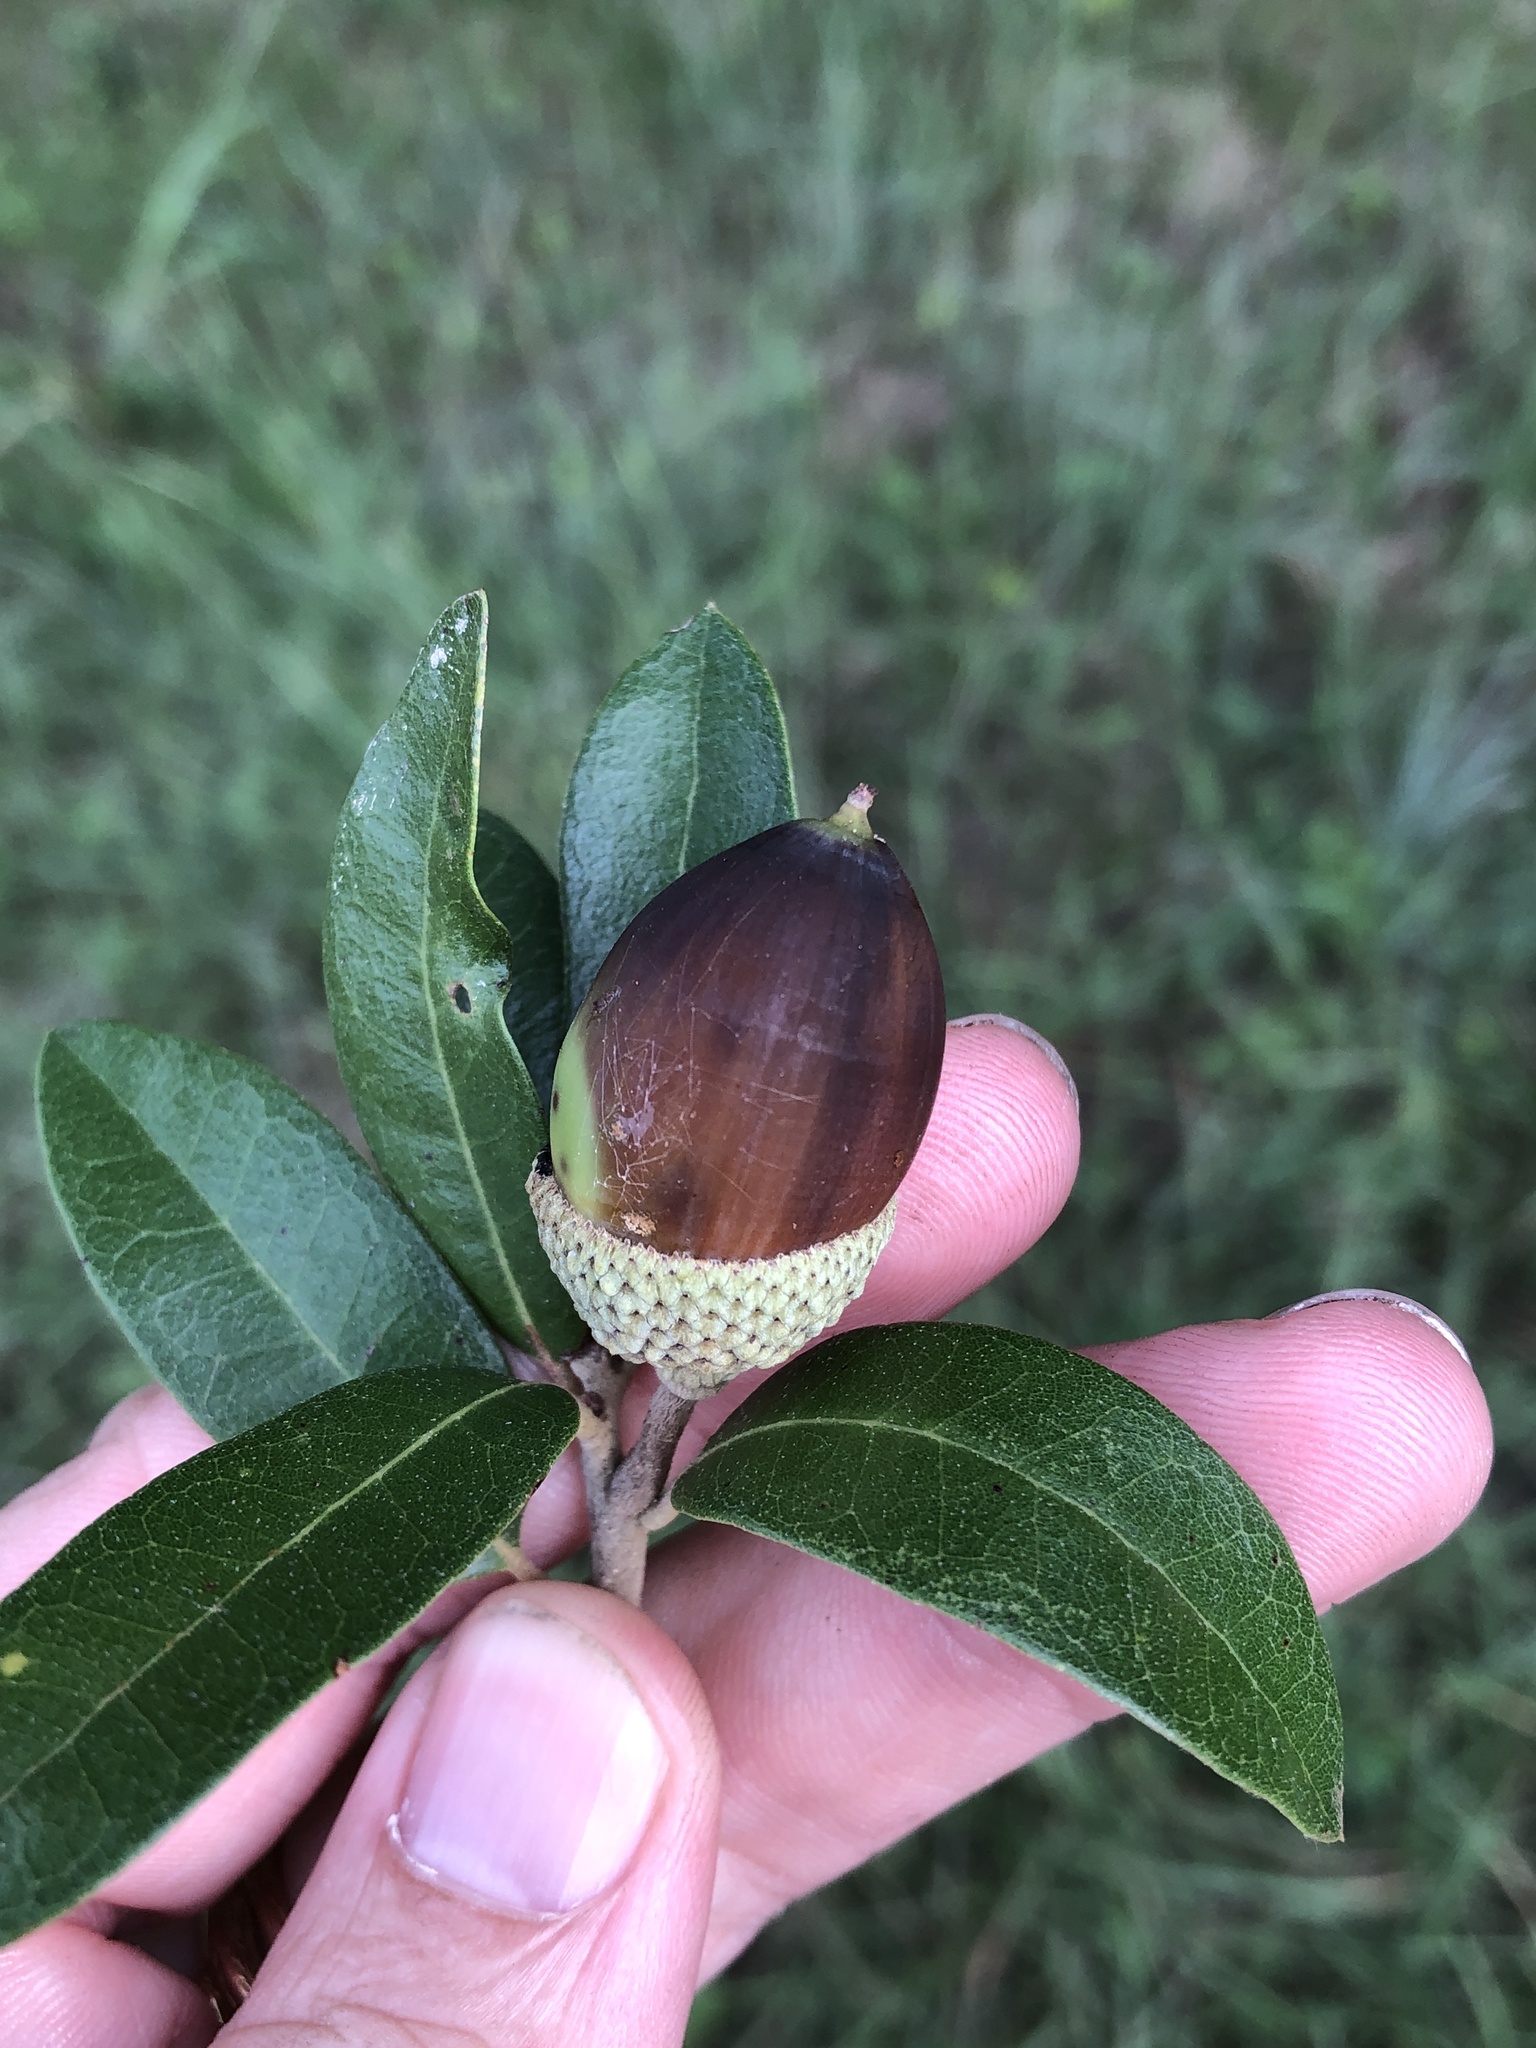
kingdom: Plantae
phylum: Tracheophyta
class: Magnoliopsida
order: Fagales
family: Fagaceae
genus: Quercus
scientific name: Quercus fusiformis
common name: Texas live oak
